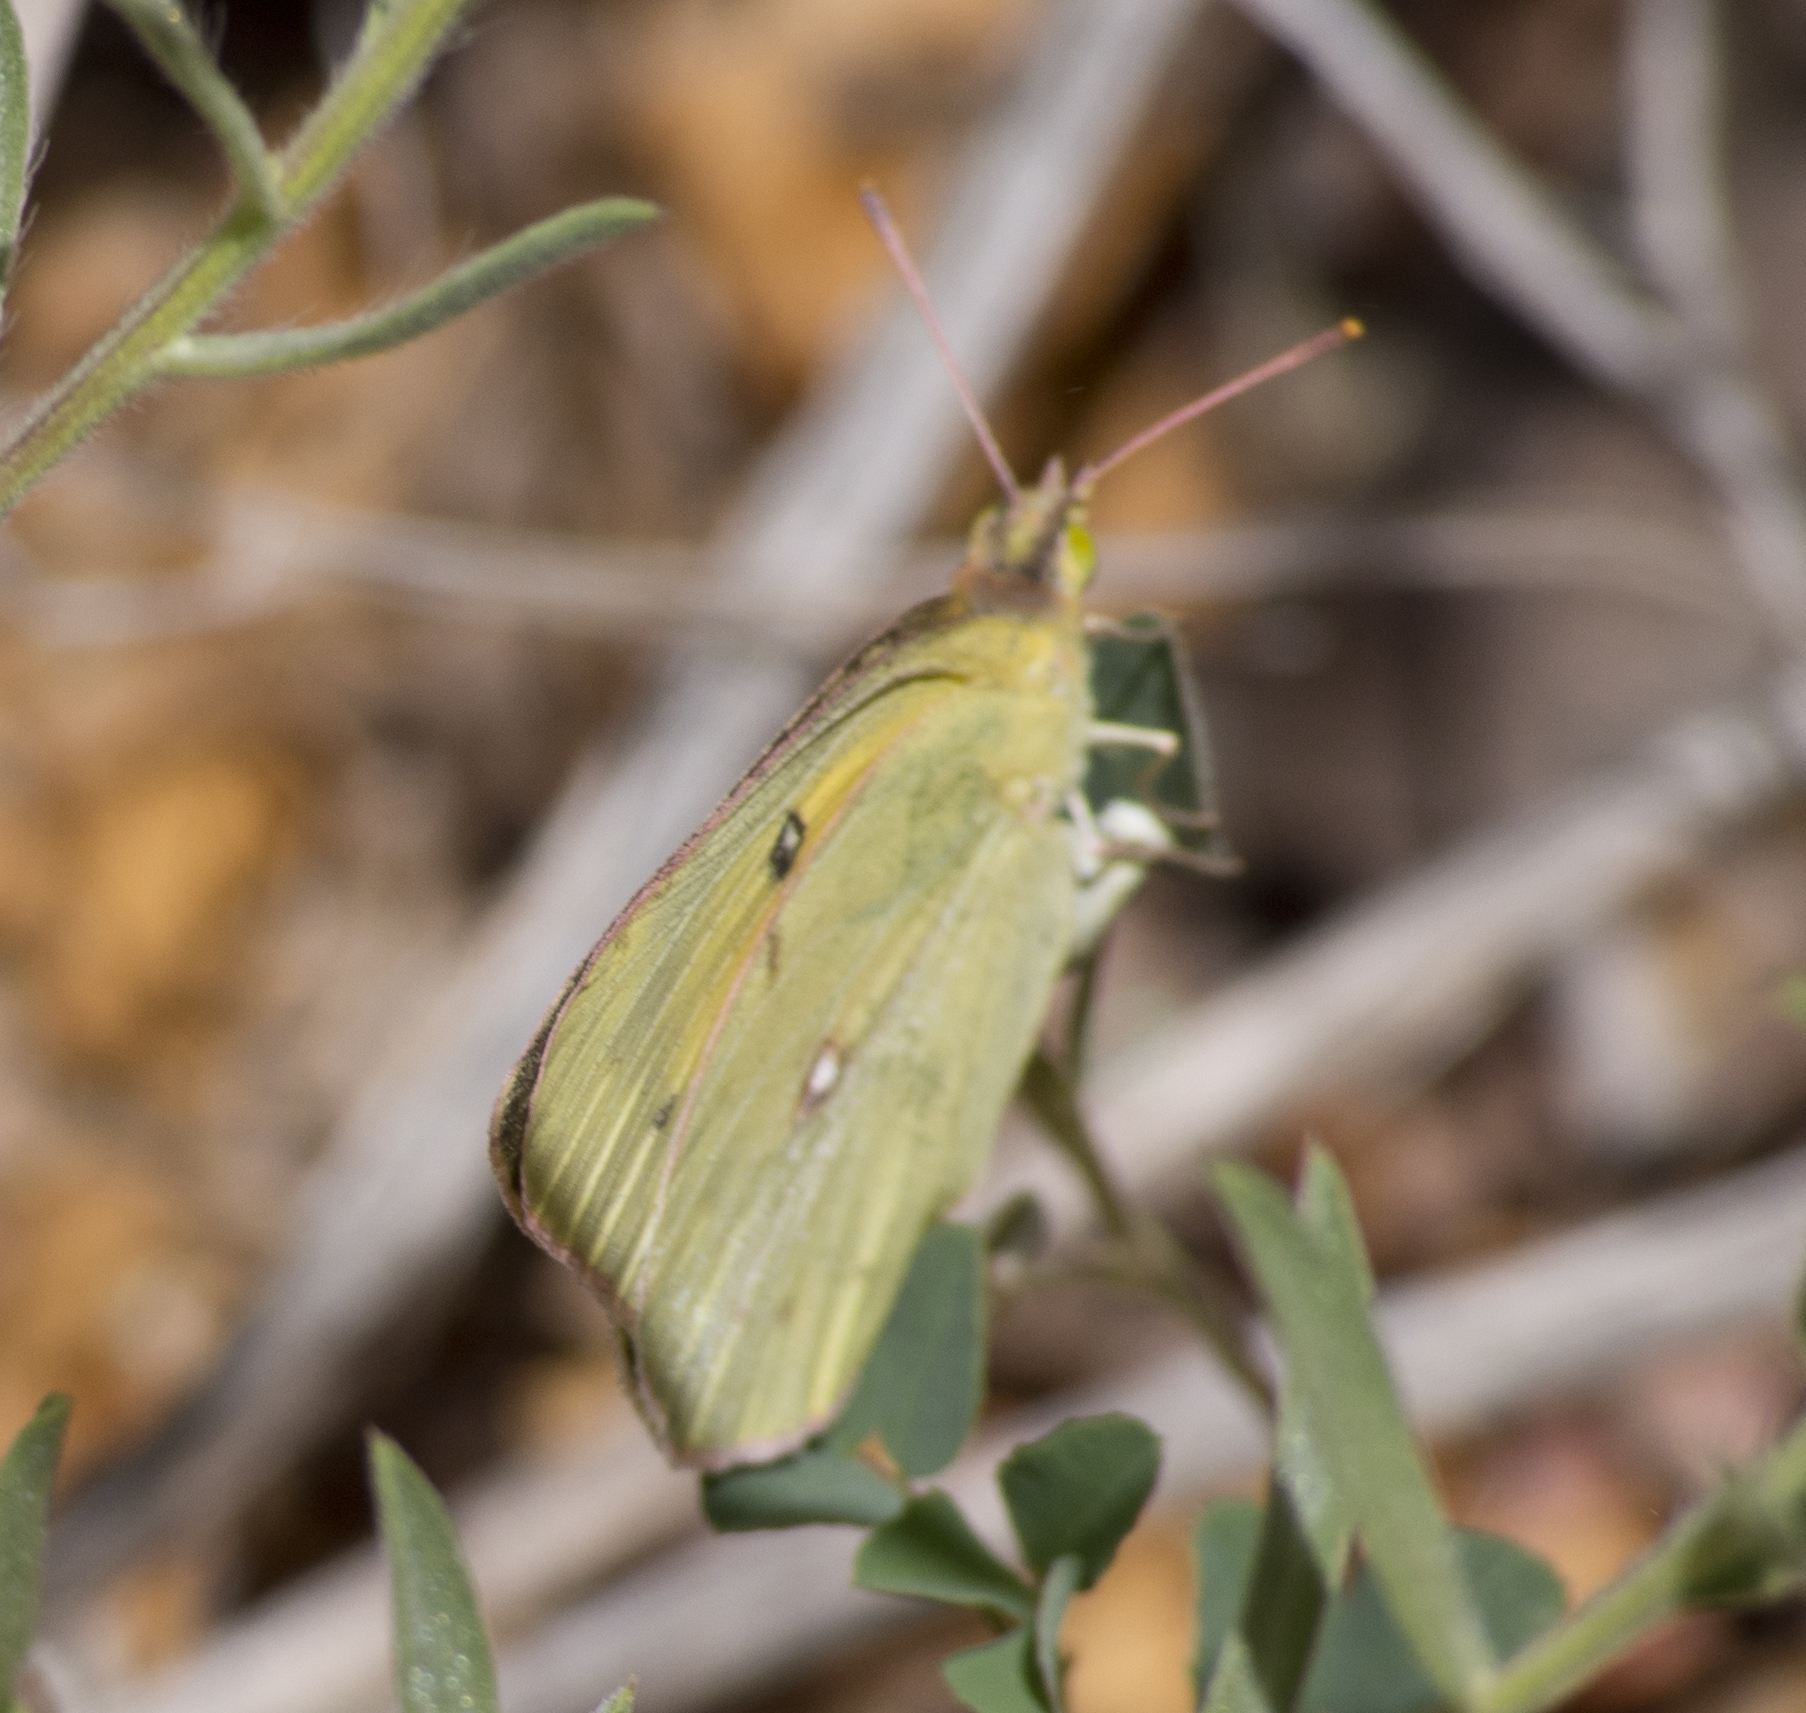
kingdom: Animalia
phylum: Arthropoda
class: Insecta
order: Lepidoptera
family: Pieridae
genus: Colias
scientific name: Colias eurytheme
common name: Alfalfa butterfly
